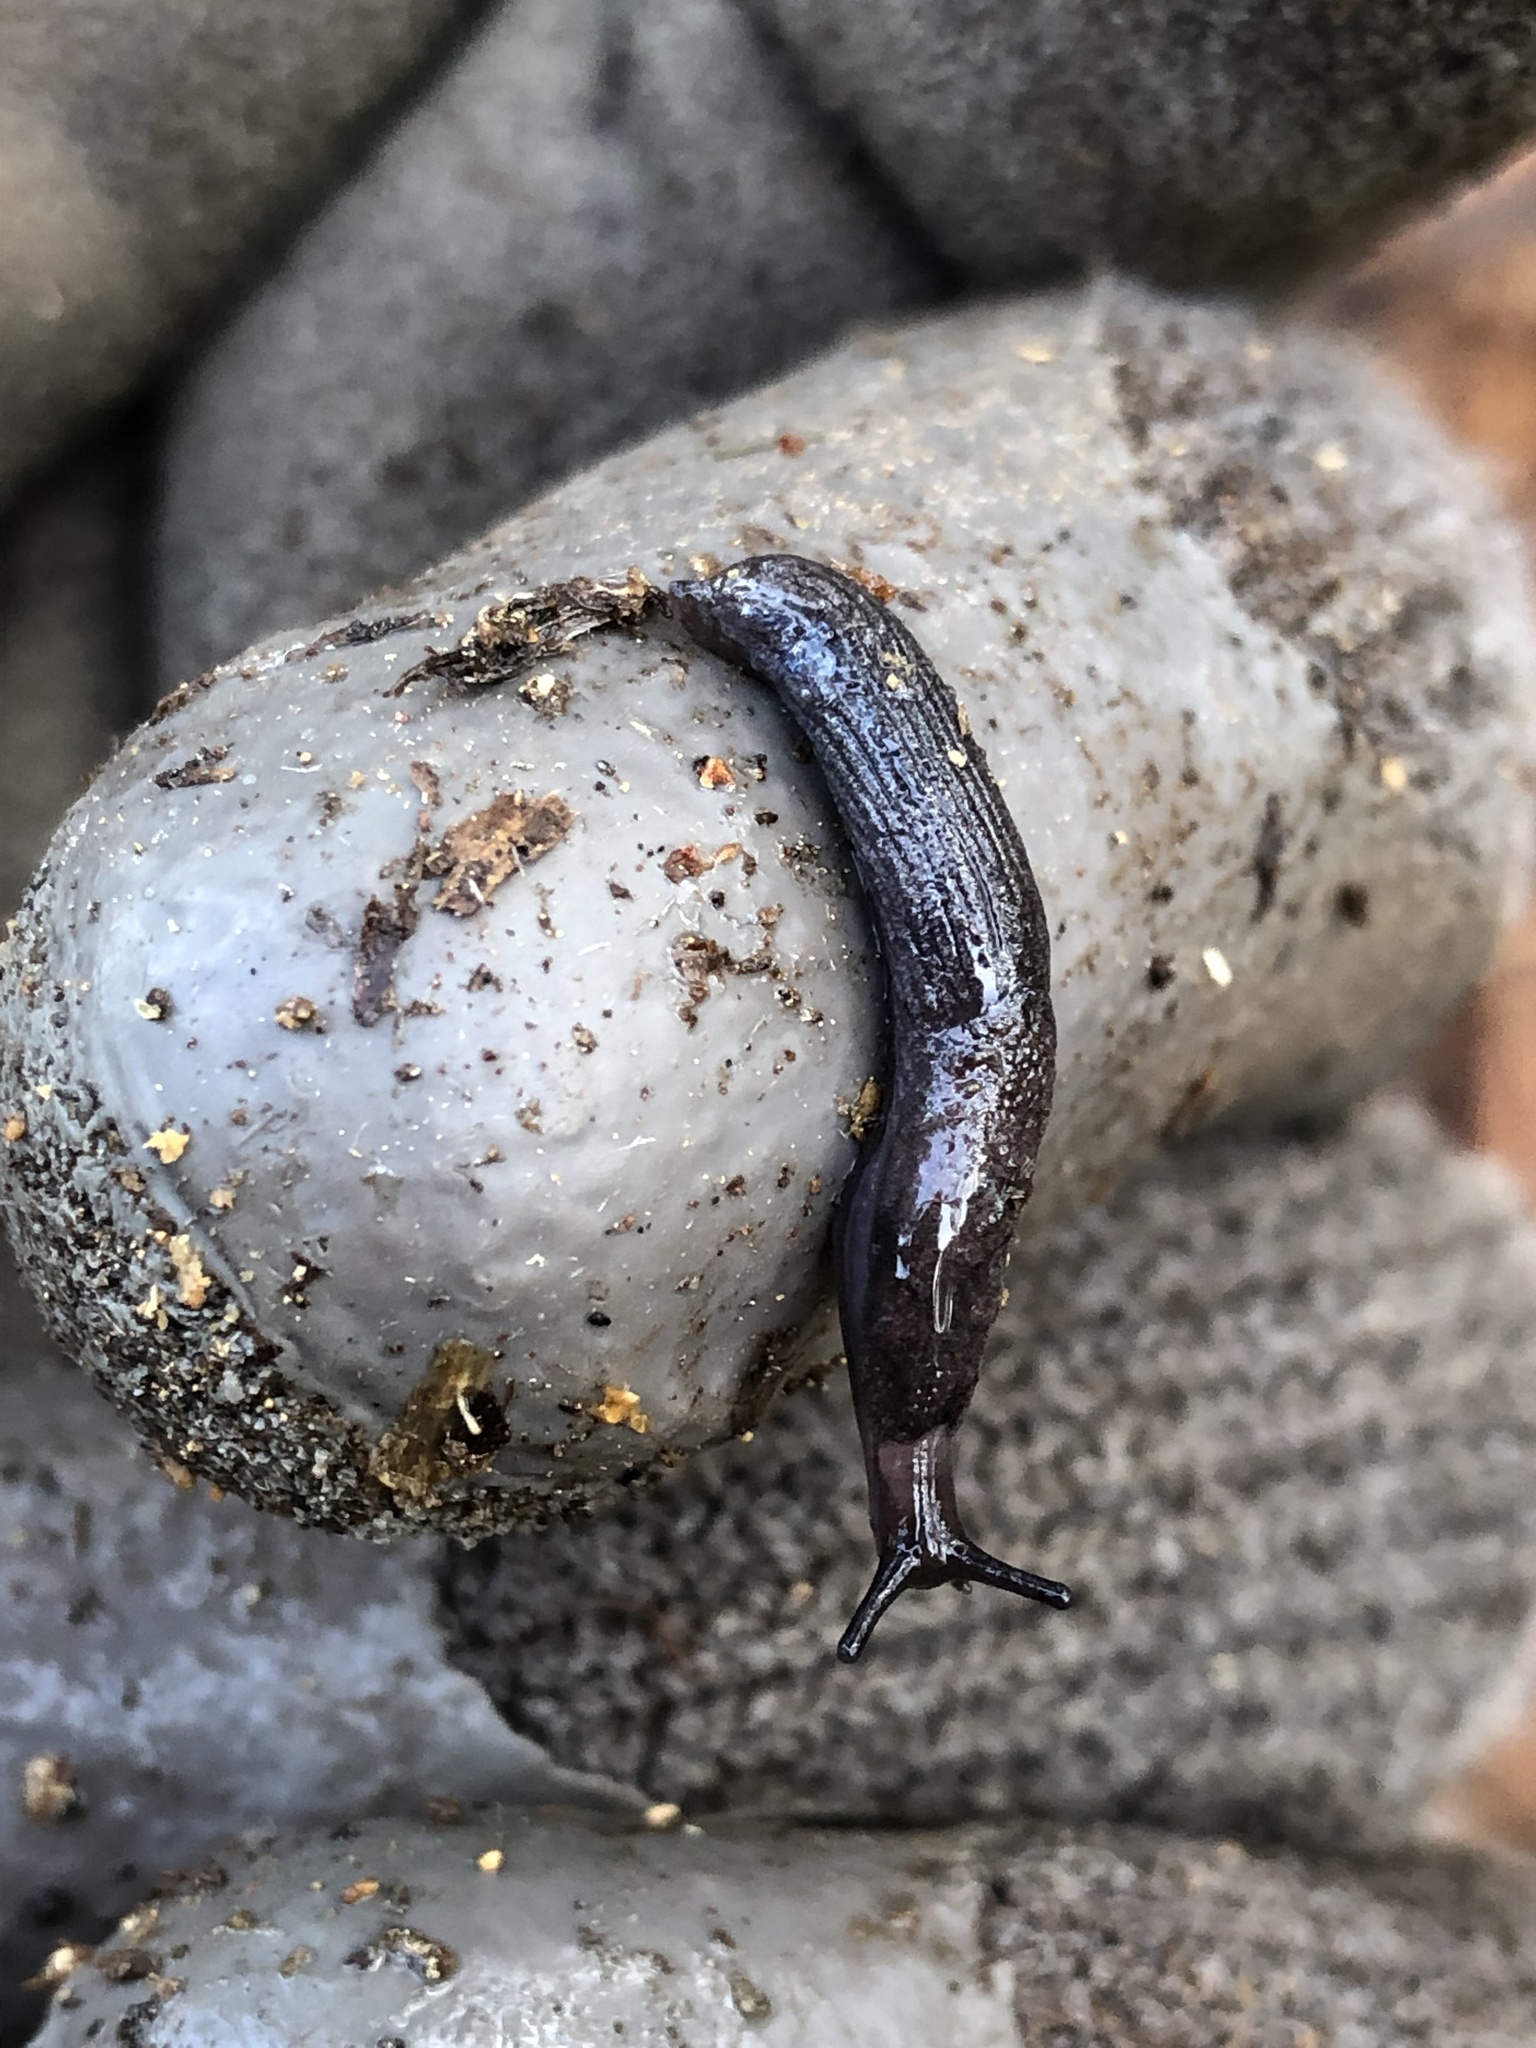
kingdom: Animalia
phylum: Mollusca
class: Gastropoda
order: Stylommatophora
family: Ariolimacidae
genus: Prophysaon
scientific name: Prophysaon coeruleum
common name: Blue-gray taildropper
